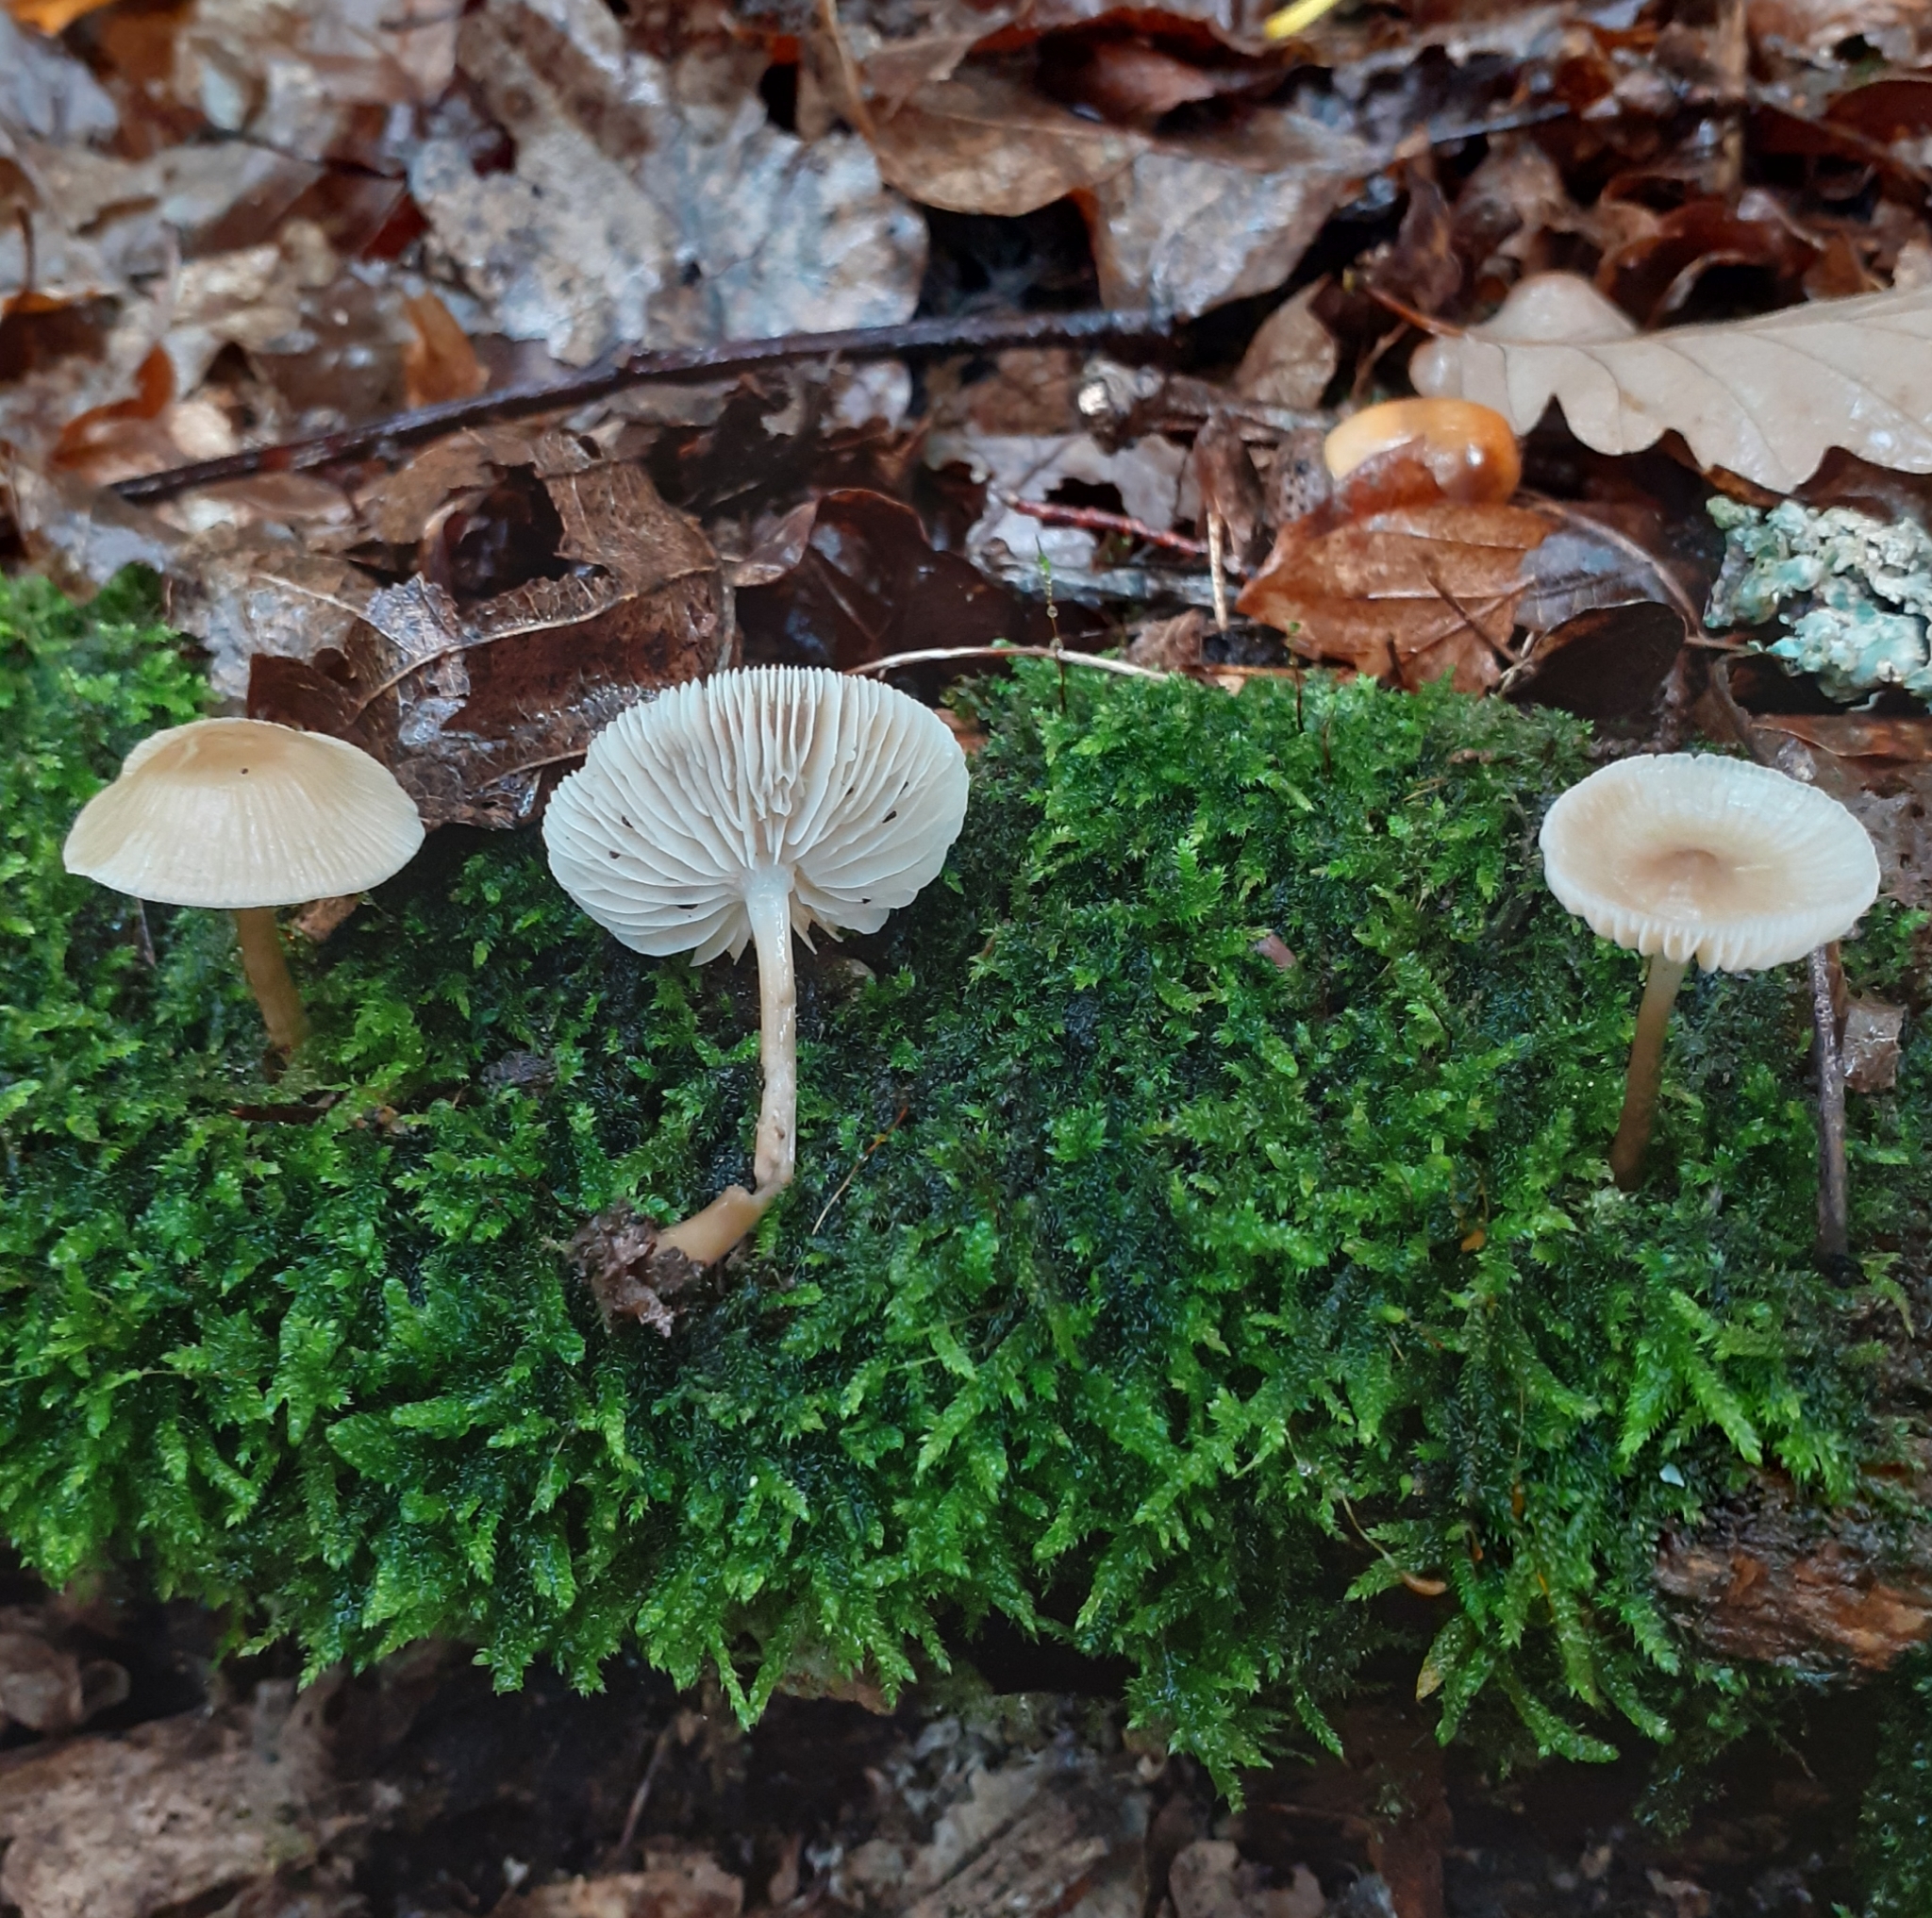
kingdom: Fungi
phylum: Basidiomycota
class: Agaricomycetes
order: Agaricales
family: Mycenaceae
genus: Mycena
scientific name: Mycena galericulata
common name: Bonnet mycena
